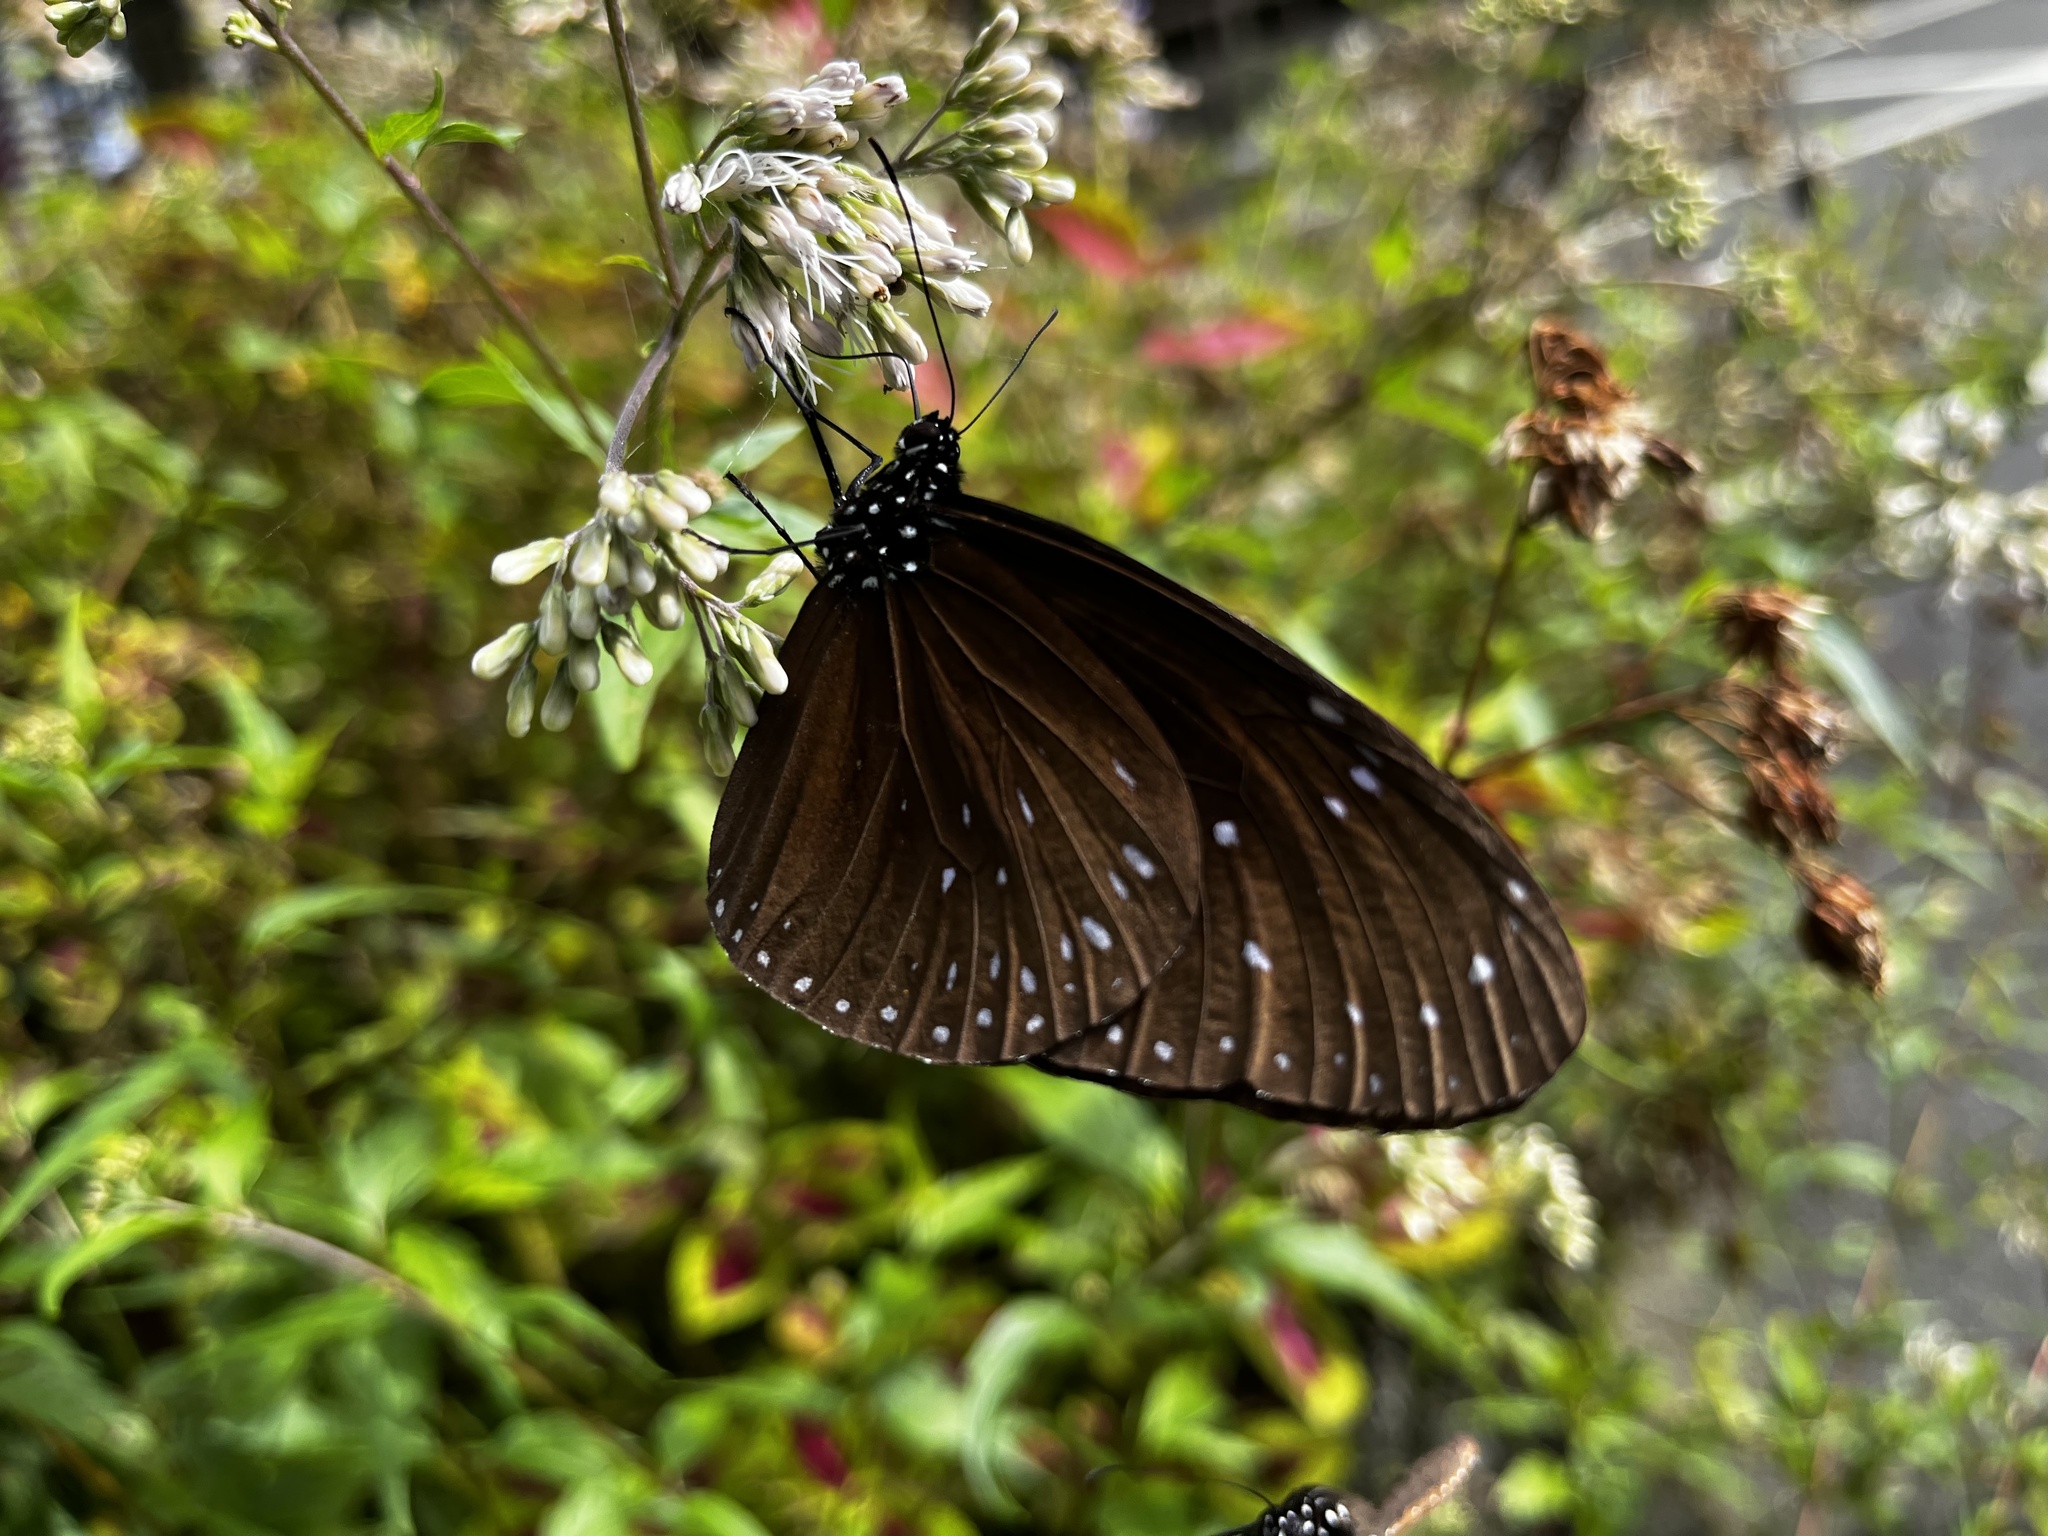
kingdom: Animalia
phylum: Arthropoda
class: Insecta
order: Lepidoptera
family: Nymphalidae
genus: Euploea
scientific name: Euploea mulciber
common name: Striped blue crow butterfly
